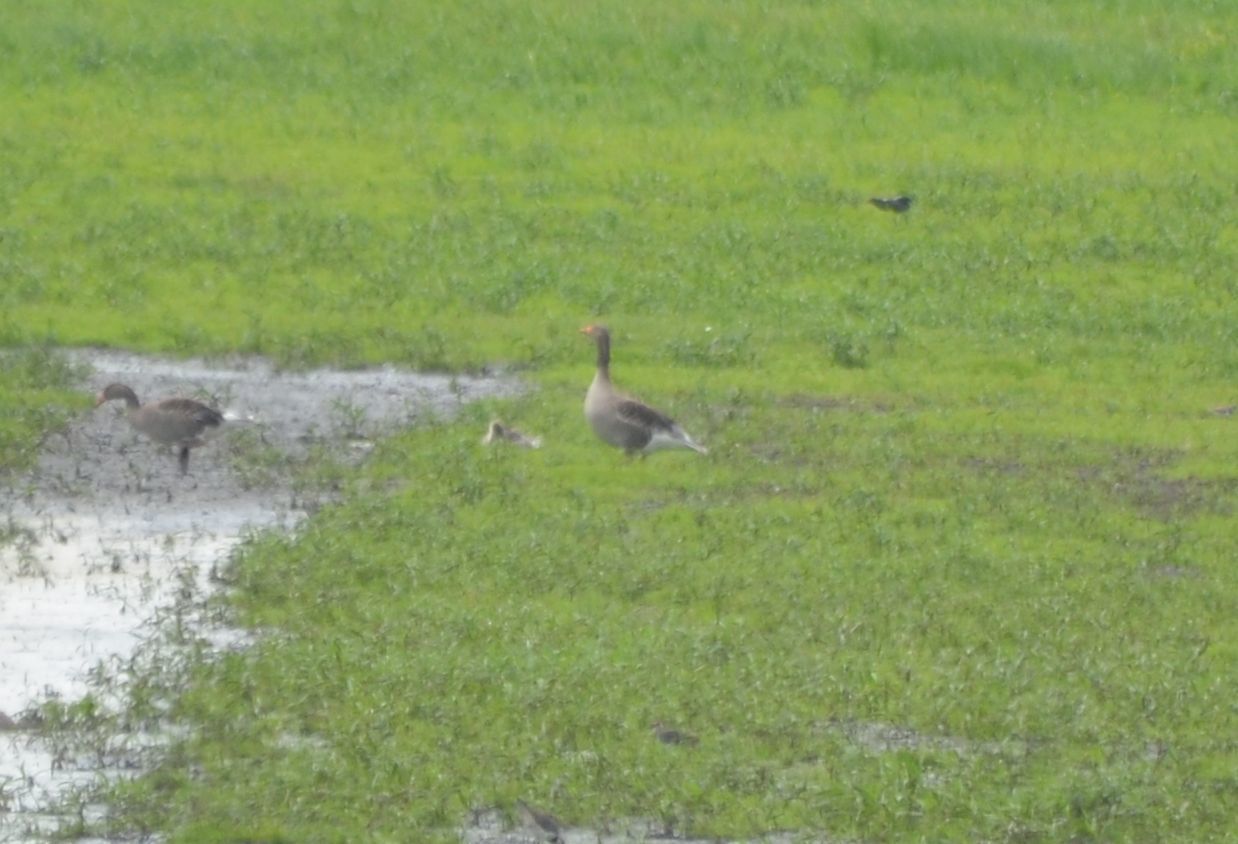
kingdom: Animalia
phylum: Chordata
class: Aves
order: Anseriformes
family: Anatidae
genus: Anser
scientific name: Anser anser
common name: Greylag goose
